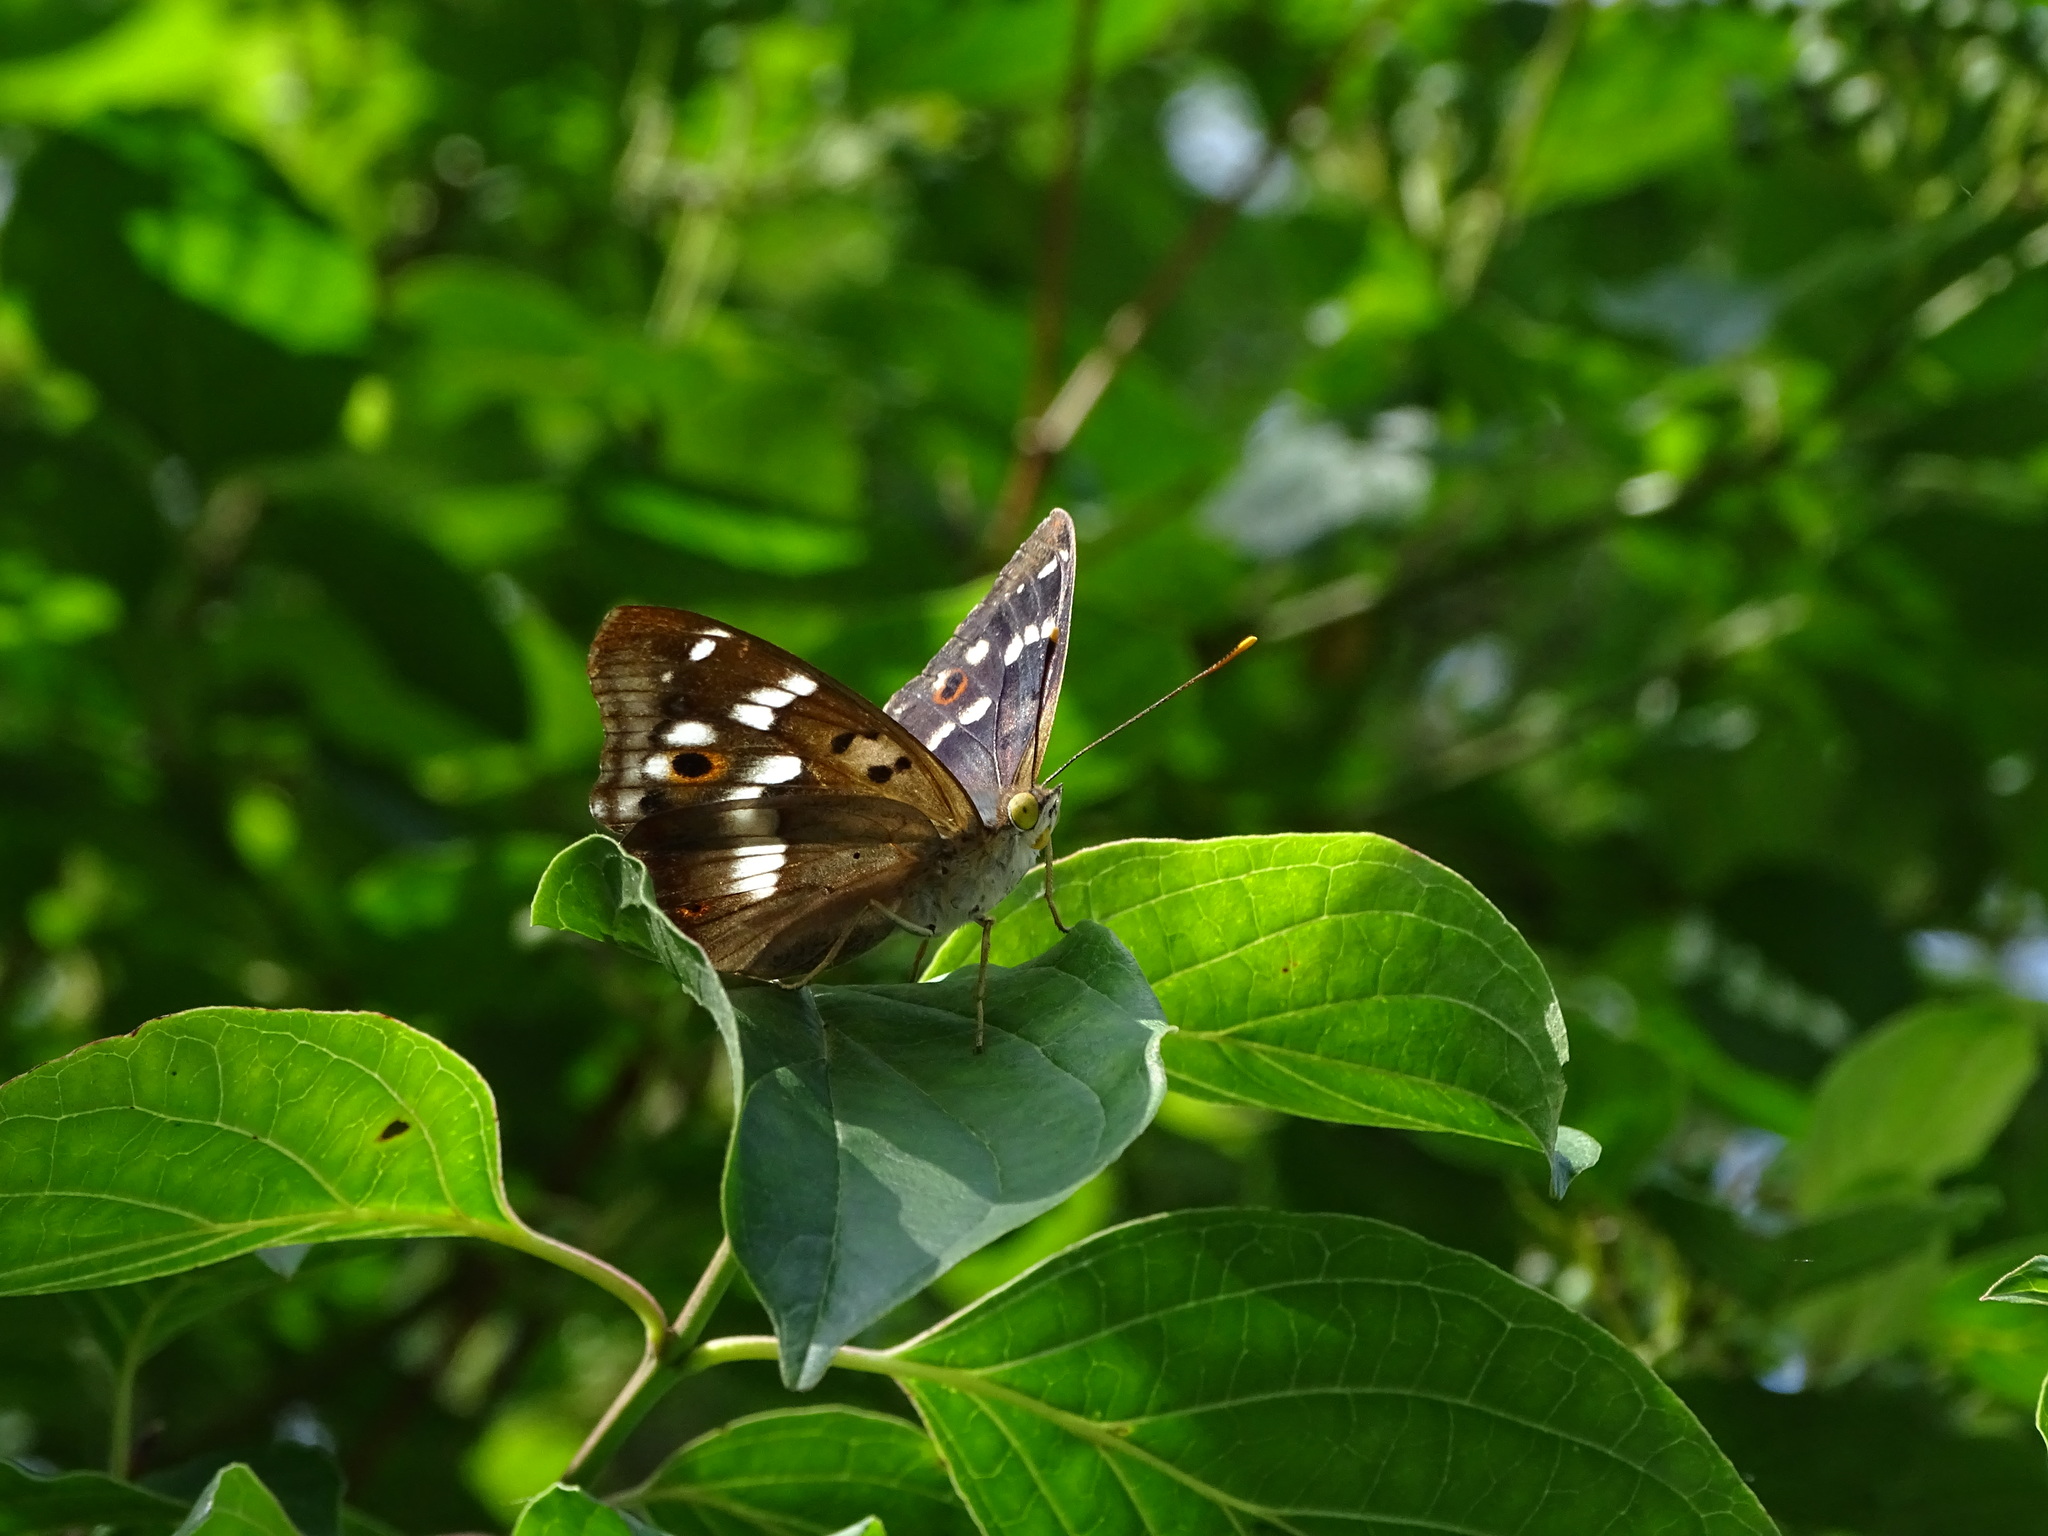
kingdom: Animalia
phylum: Arthropoda
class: Insecta
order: Lepidoptera
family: Nymphalidae
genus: Apatura
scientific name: Apatura ilia
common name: Lesser purple emperor
